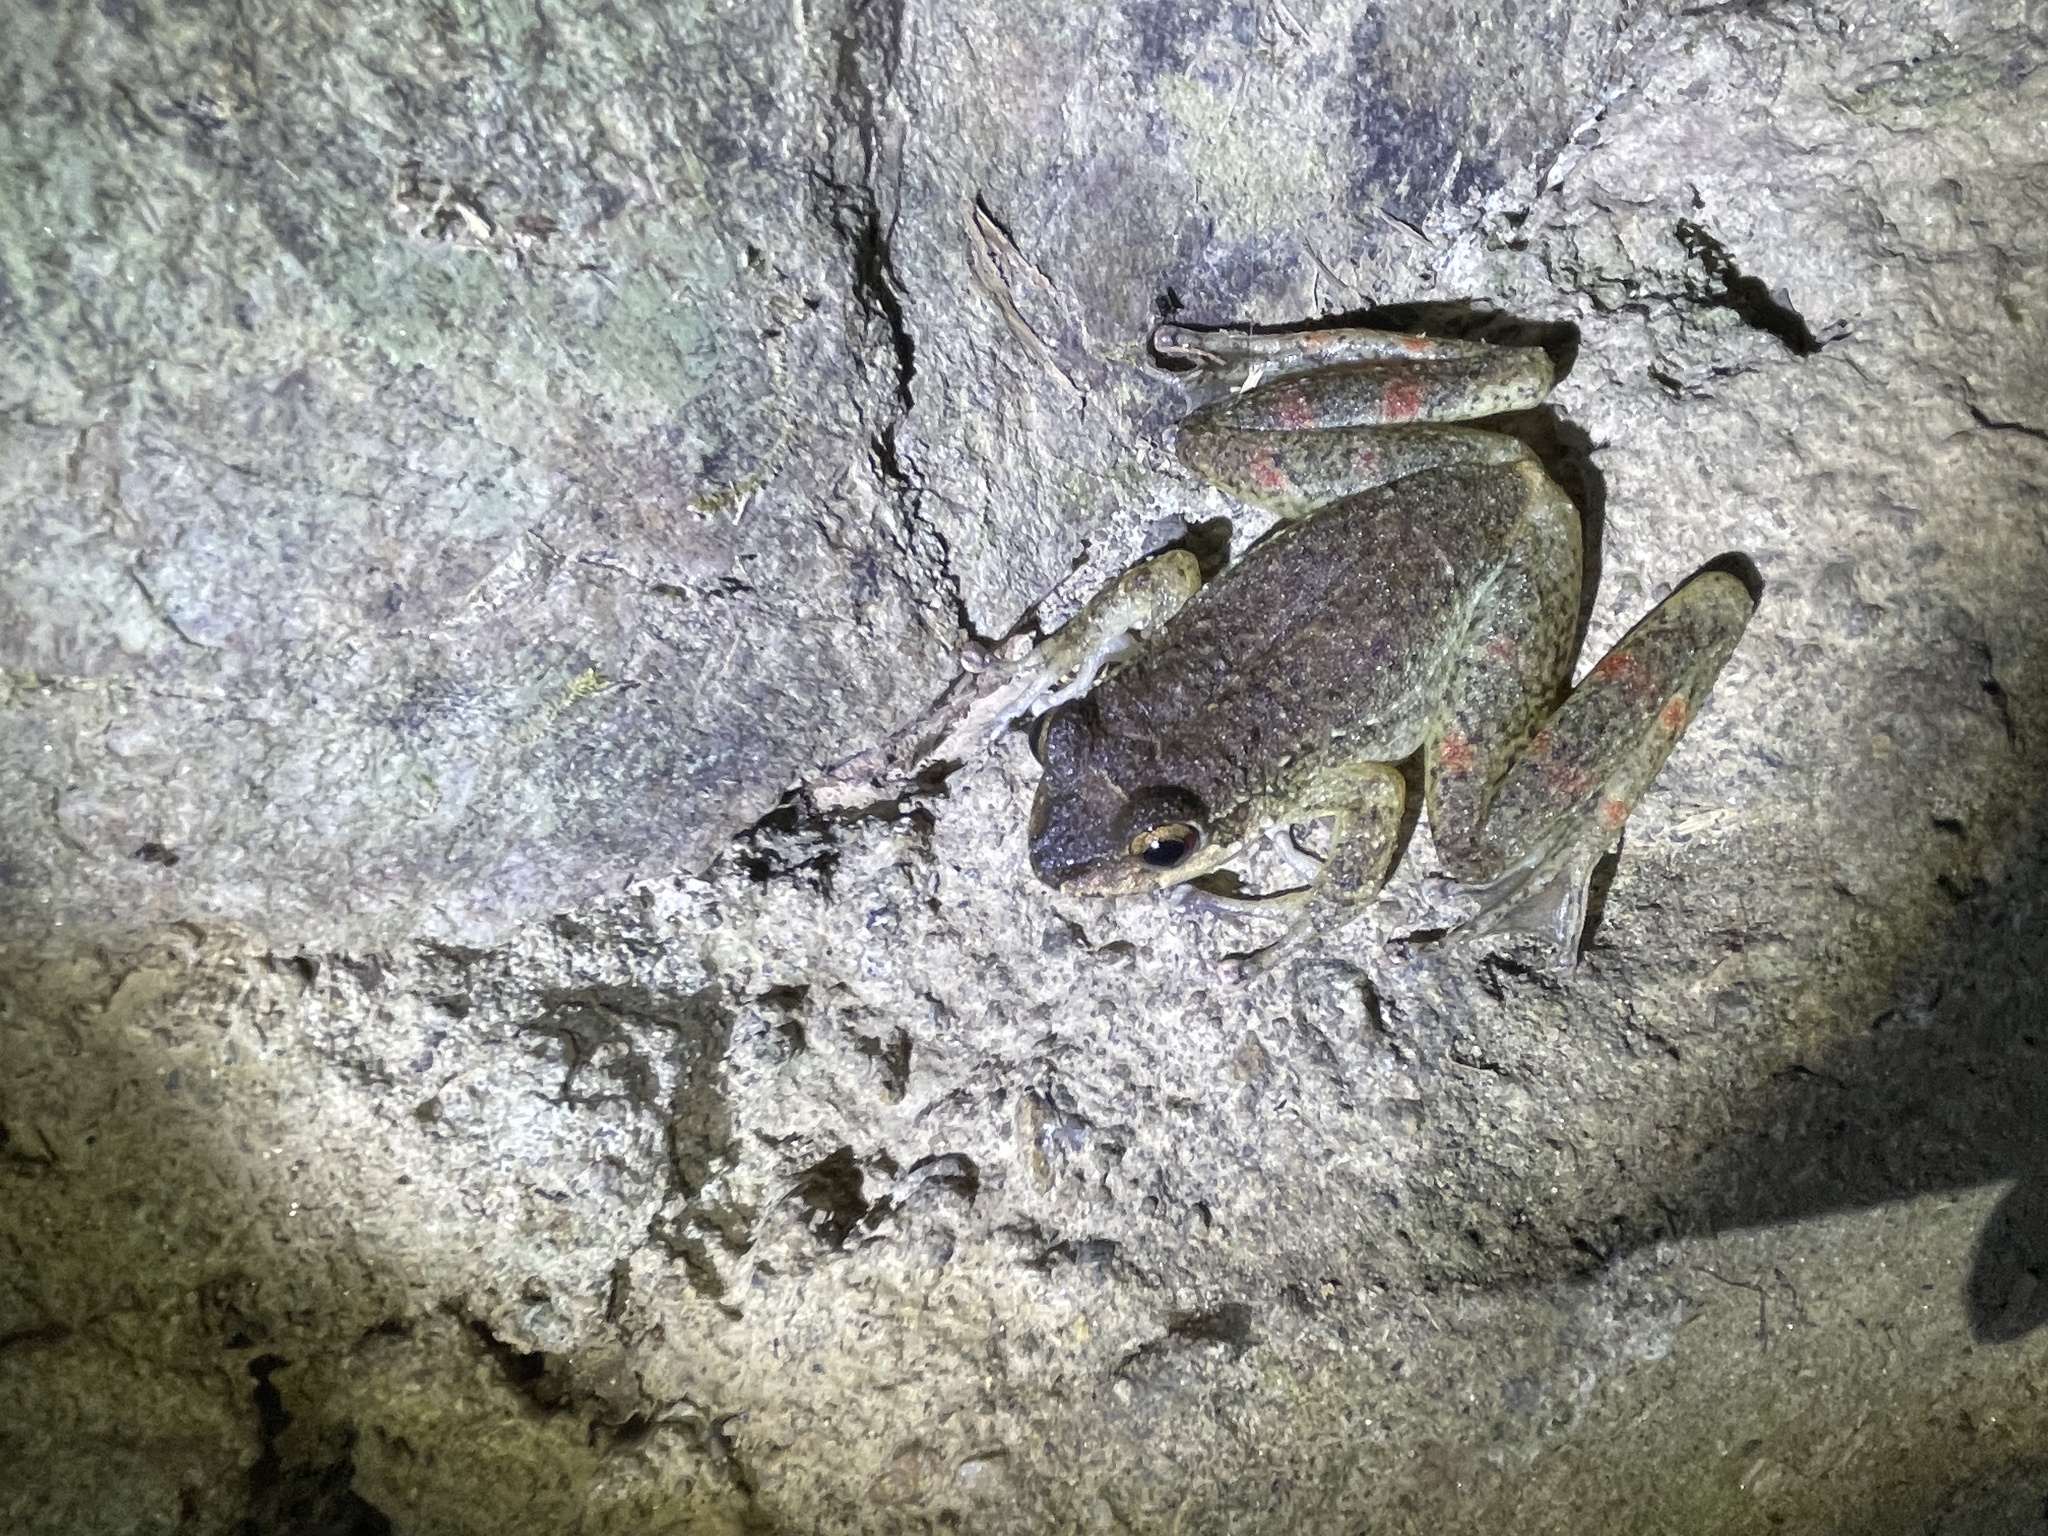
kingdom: Animalia
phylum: Chordata
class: Amphibia
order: Anura
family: Hemiphractidae
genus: Cryptobatrachus
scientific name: Cryptobatrachus boulengeri
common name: Boulenger's backpack frog
